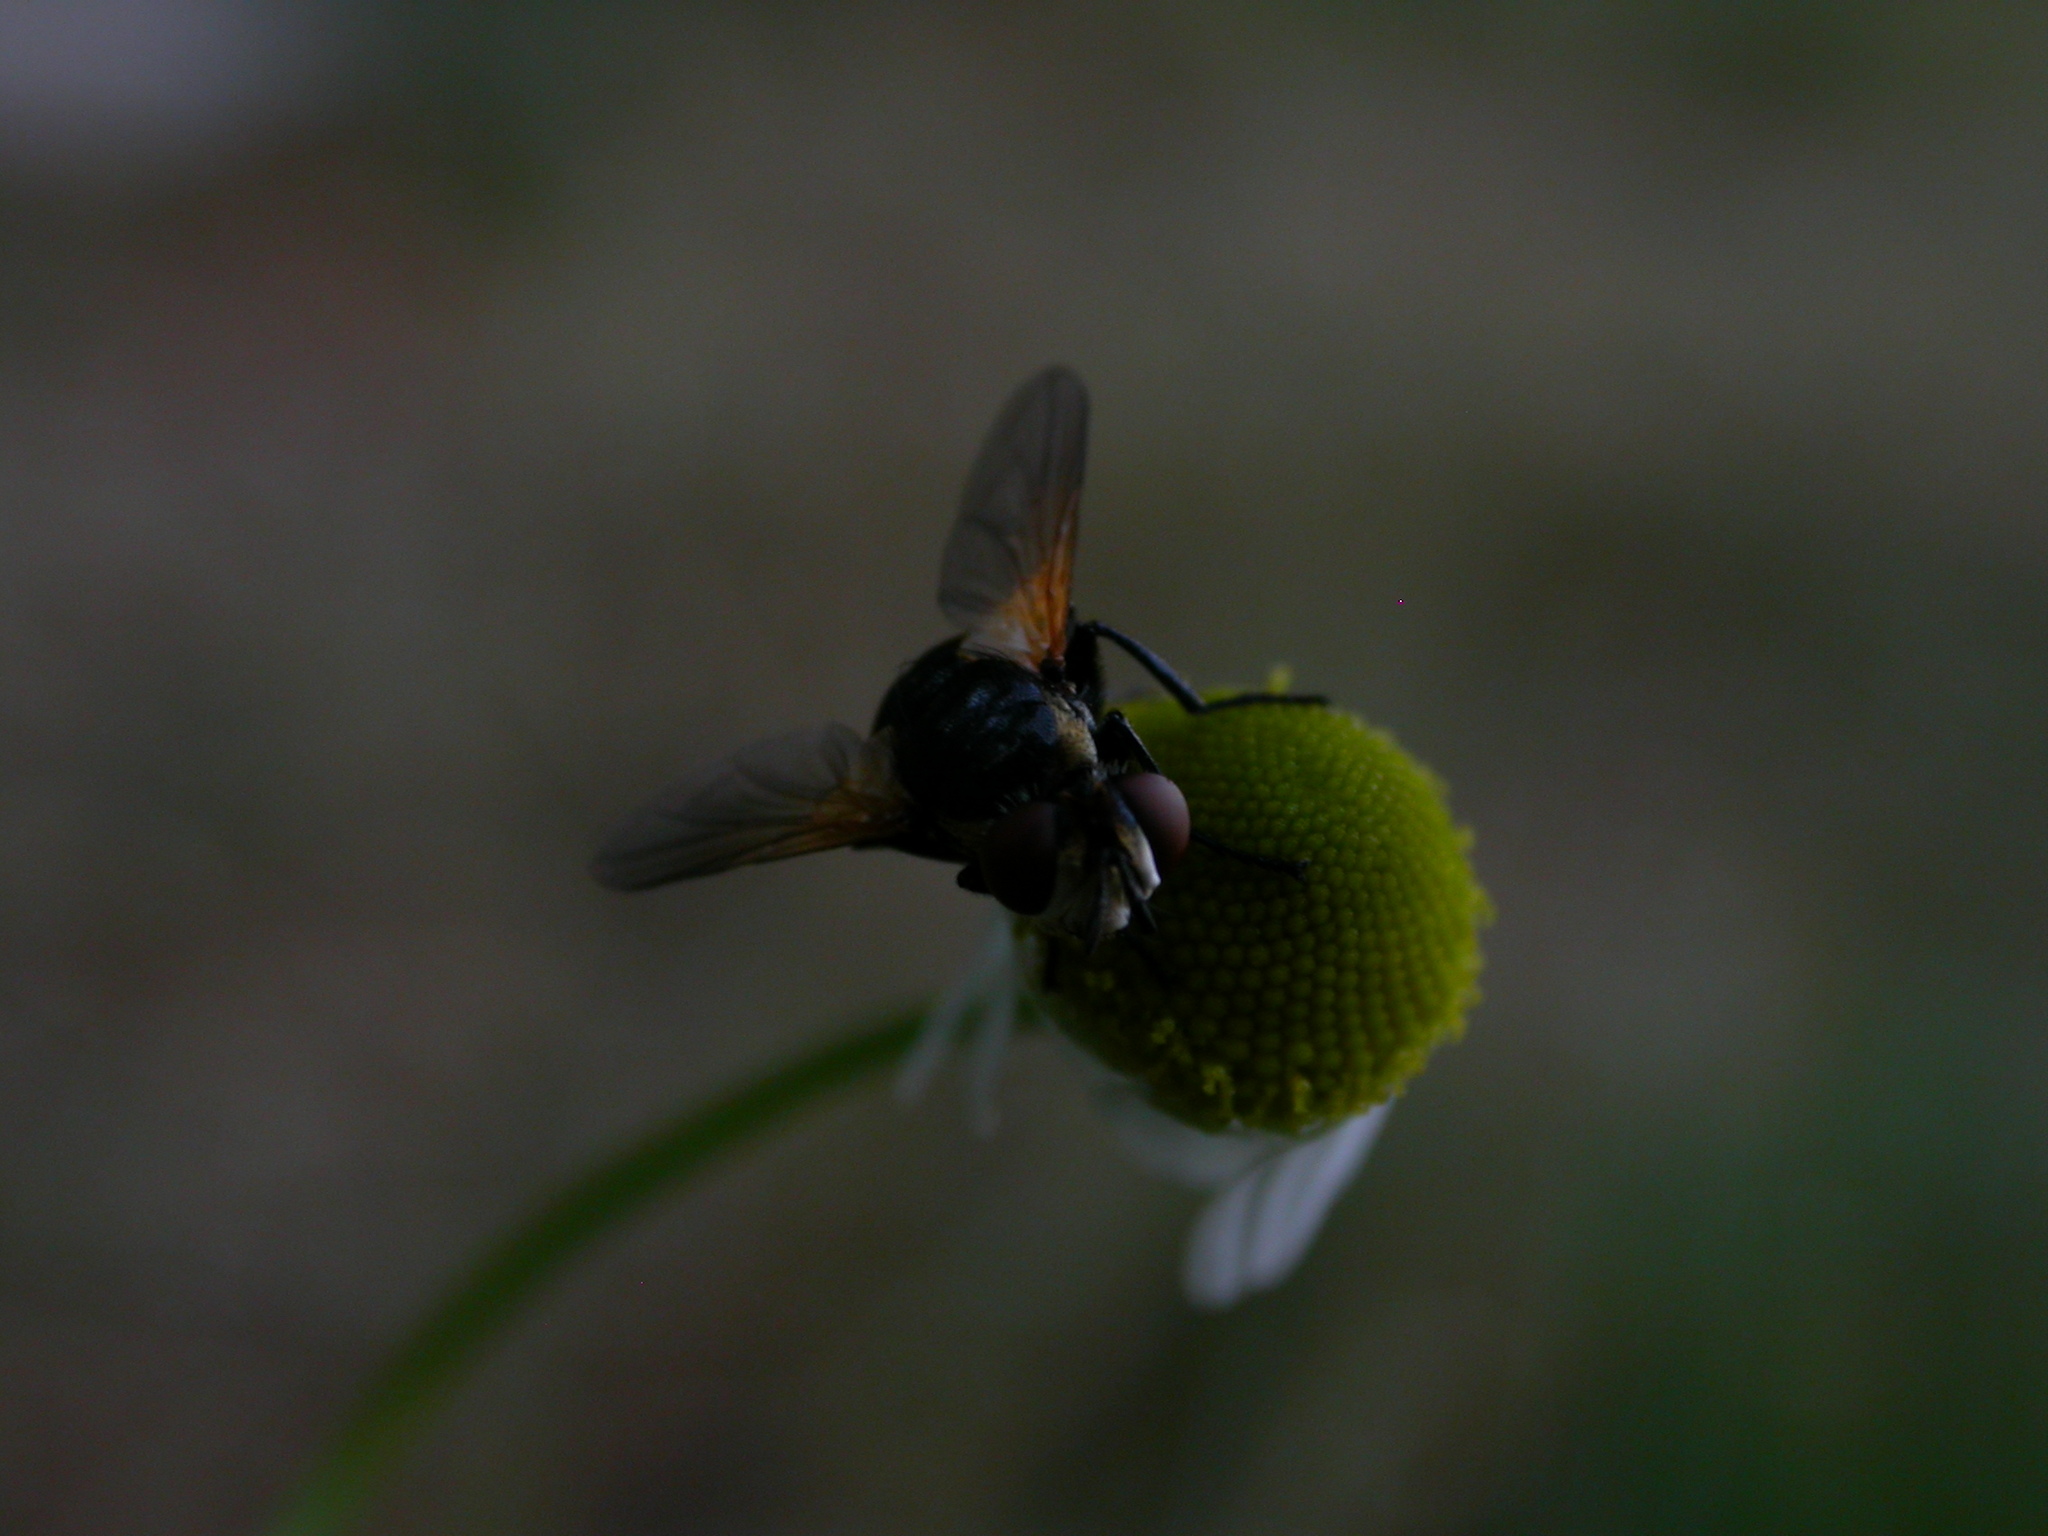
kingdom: Animalia
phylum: Arthropoda
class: Insecta
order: Diptera
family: Muscidae
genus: Mesembrina
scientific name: Mesembrina meridiana
